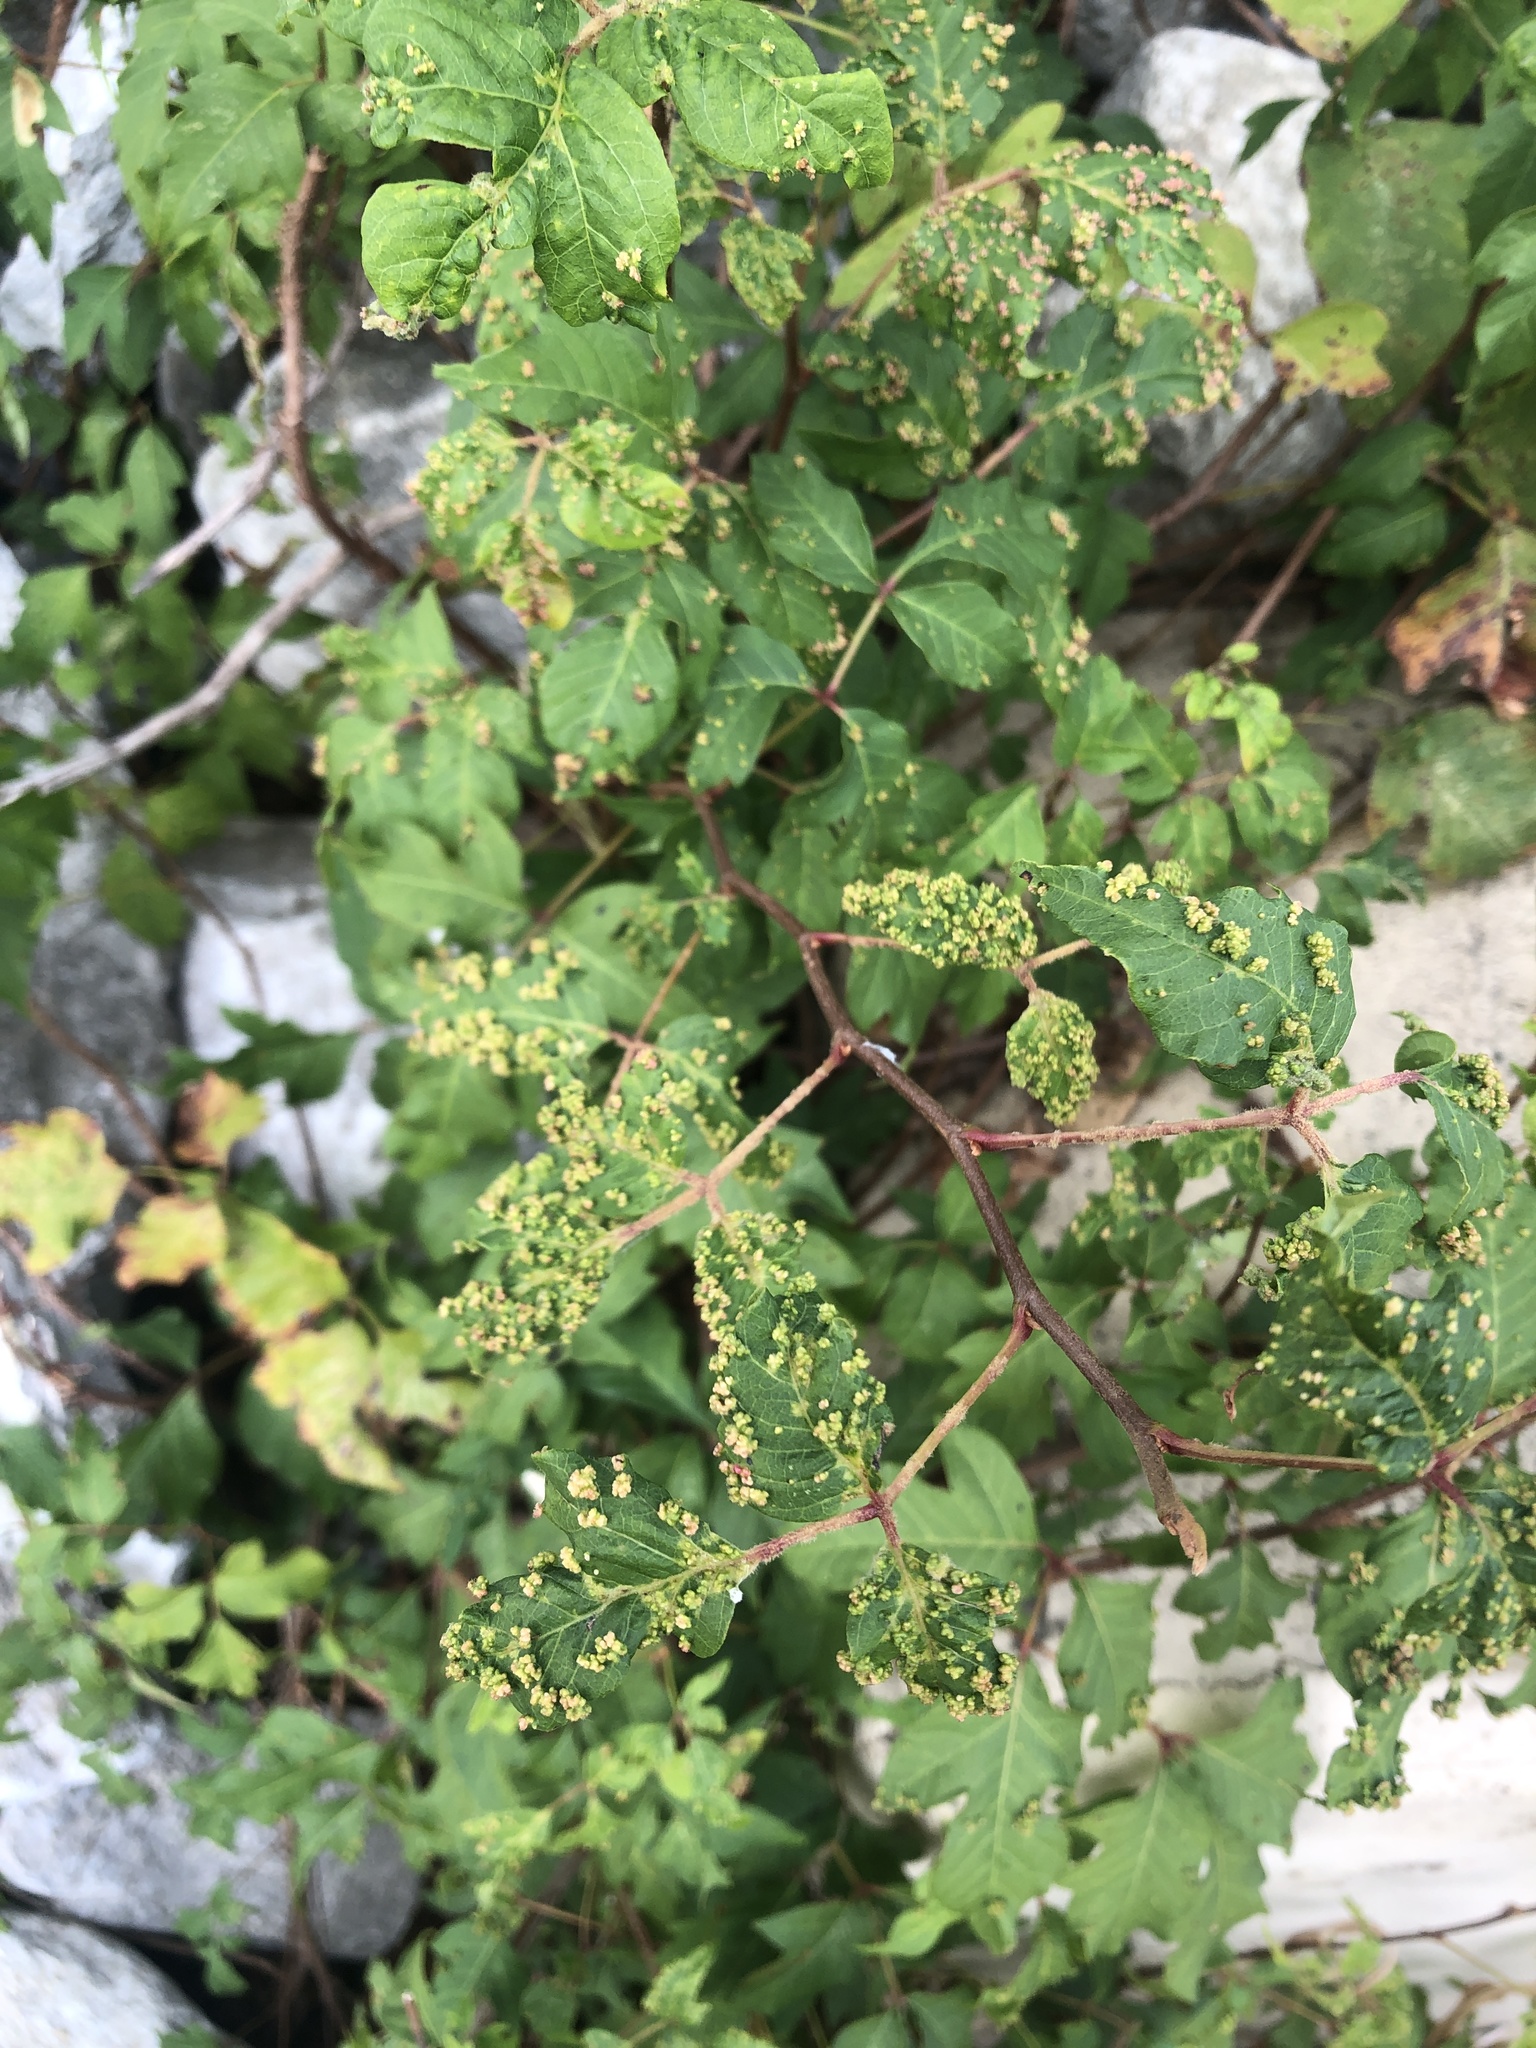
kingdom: Animalia
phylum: Arthropoda
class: Arachnida
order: Trombidiformes
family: Eriophyidae
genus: Aculops
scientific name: Aculops
